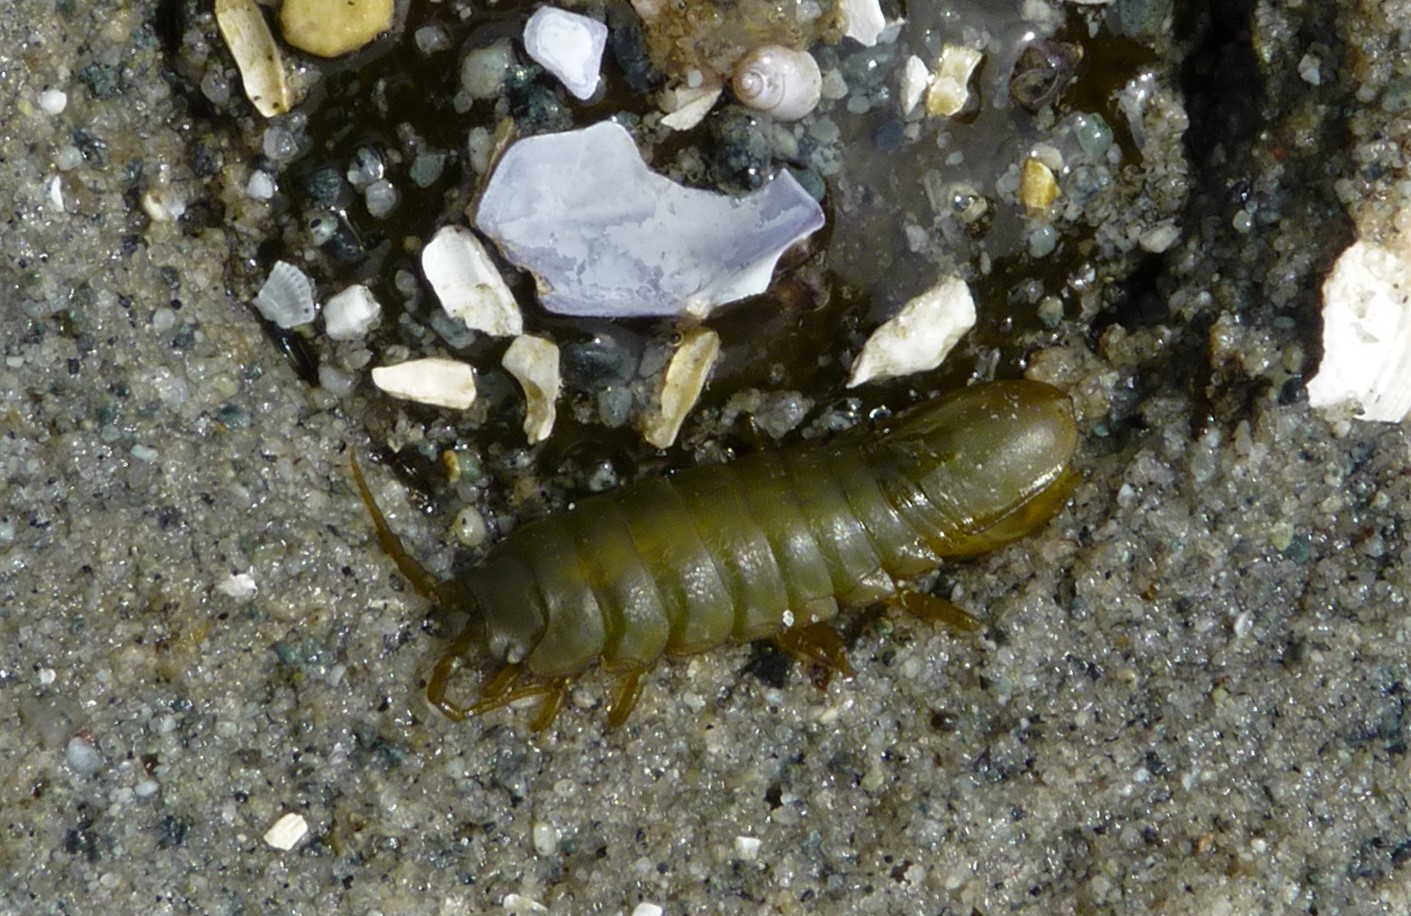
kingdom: Animalia
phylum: Arthropoda
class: Malacostraca
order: Isopoda
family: Idoteidae
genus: Pentidotea
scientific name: Pentidotea wosnesenskii
